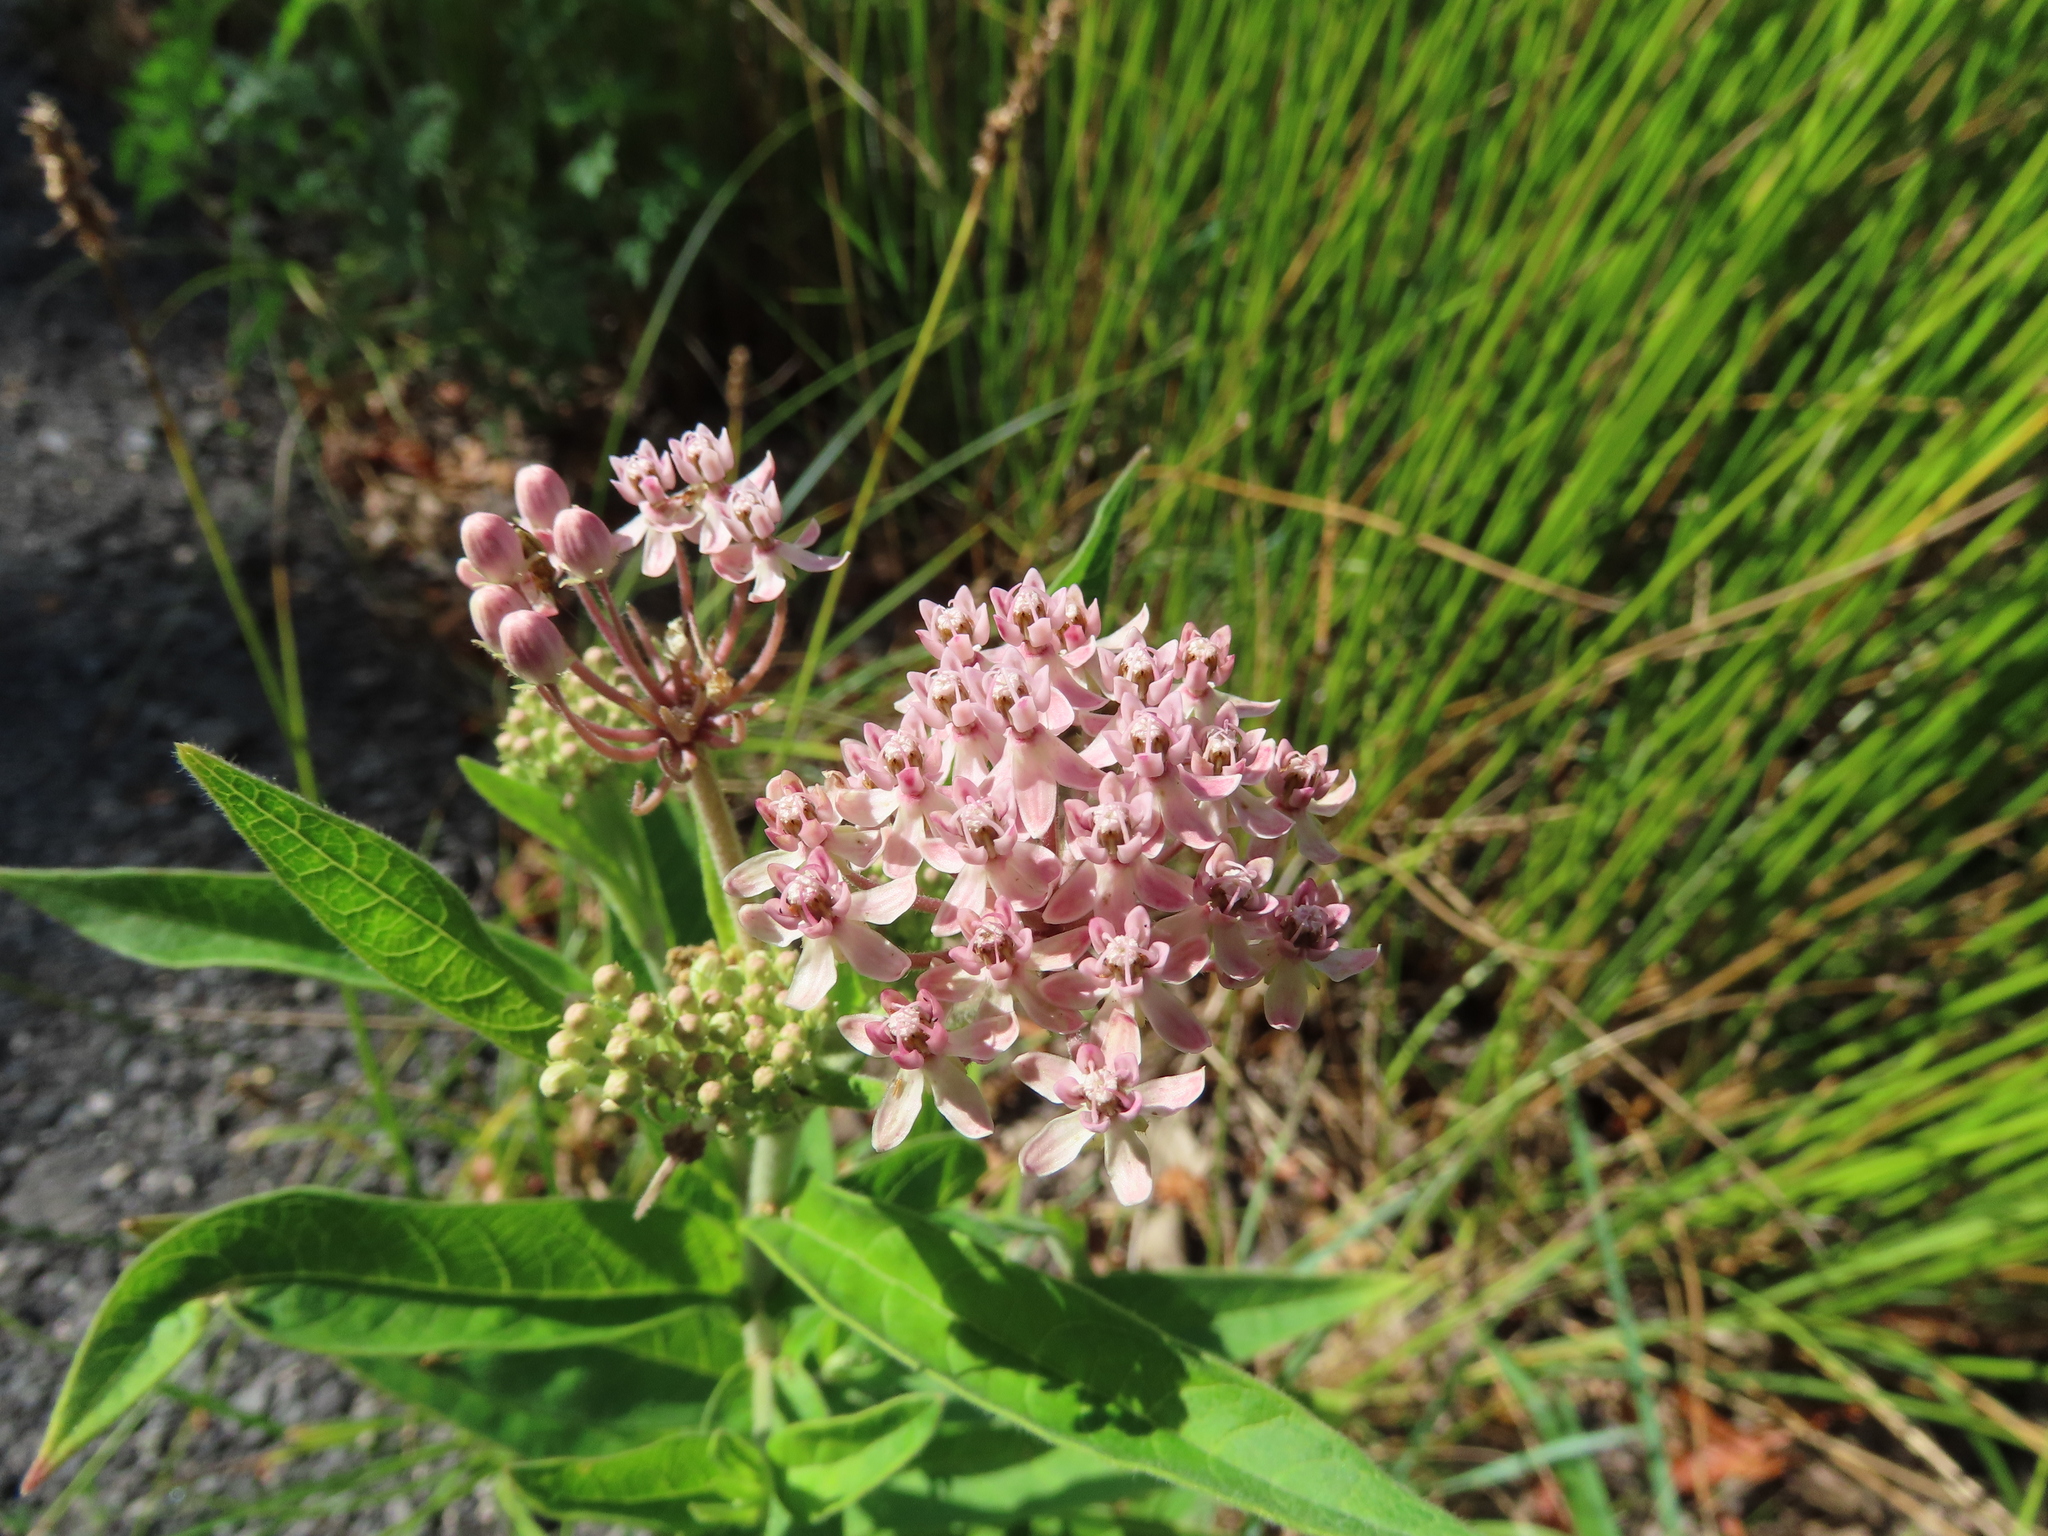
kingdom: Plantae
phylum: Tracheophyta
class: Magnoliopsida
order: Gentianales
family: Apocynaceae
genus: Asclepias
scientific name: Asclepias incarnata
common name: Swamp milkweed
